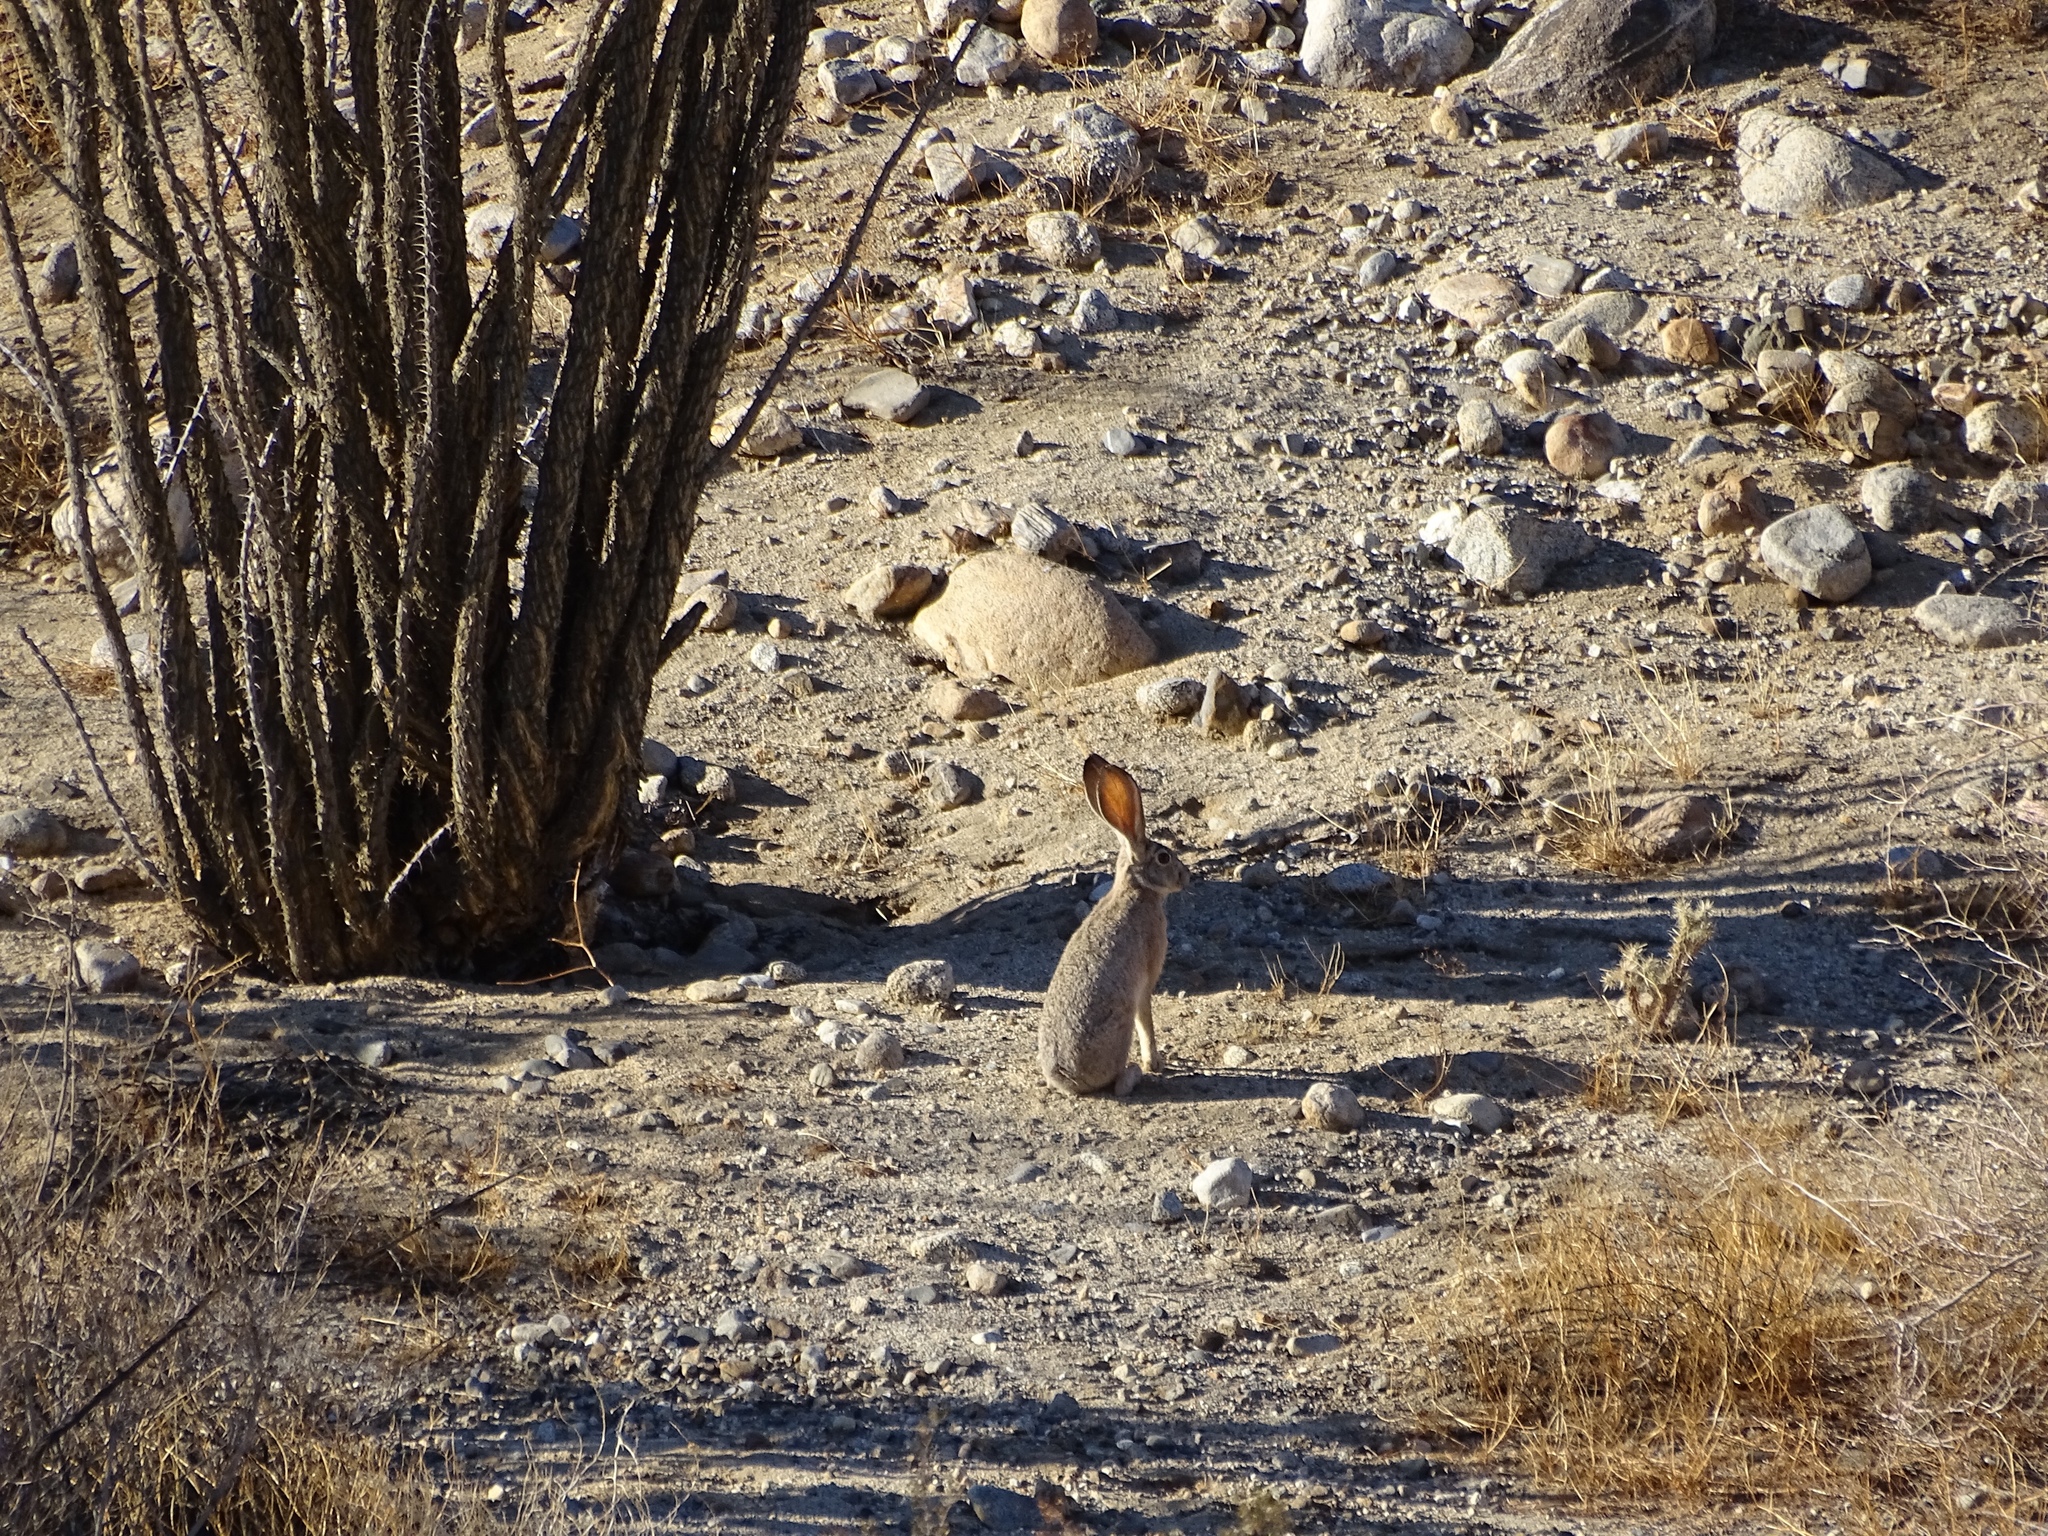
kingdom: Animalia
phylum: Chordata
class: Mammalia
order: Lagomorpha
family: Leporidae
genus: Lepus
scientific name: Lepus californicus
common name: Black-tailed jackrabbit
